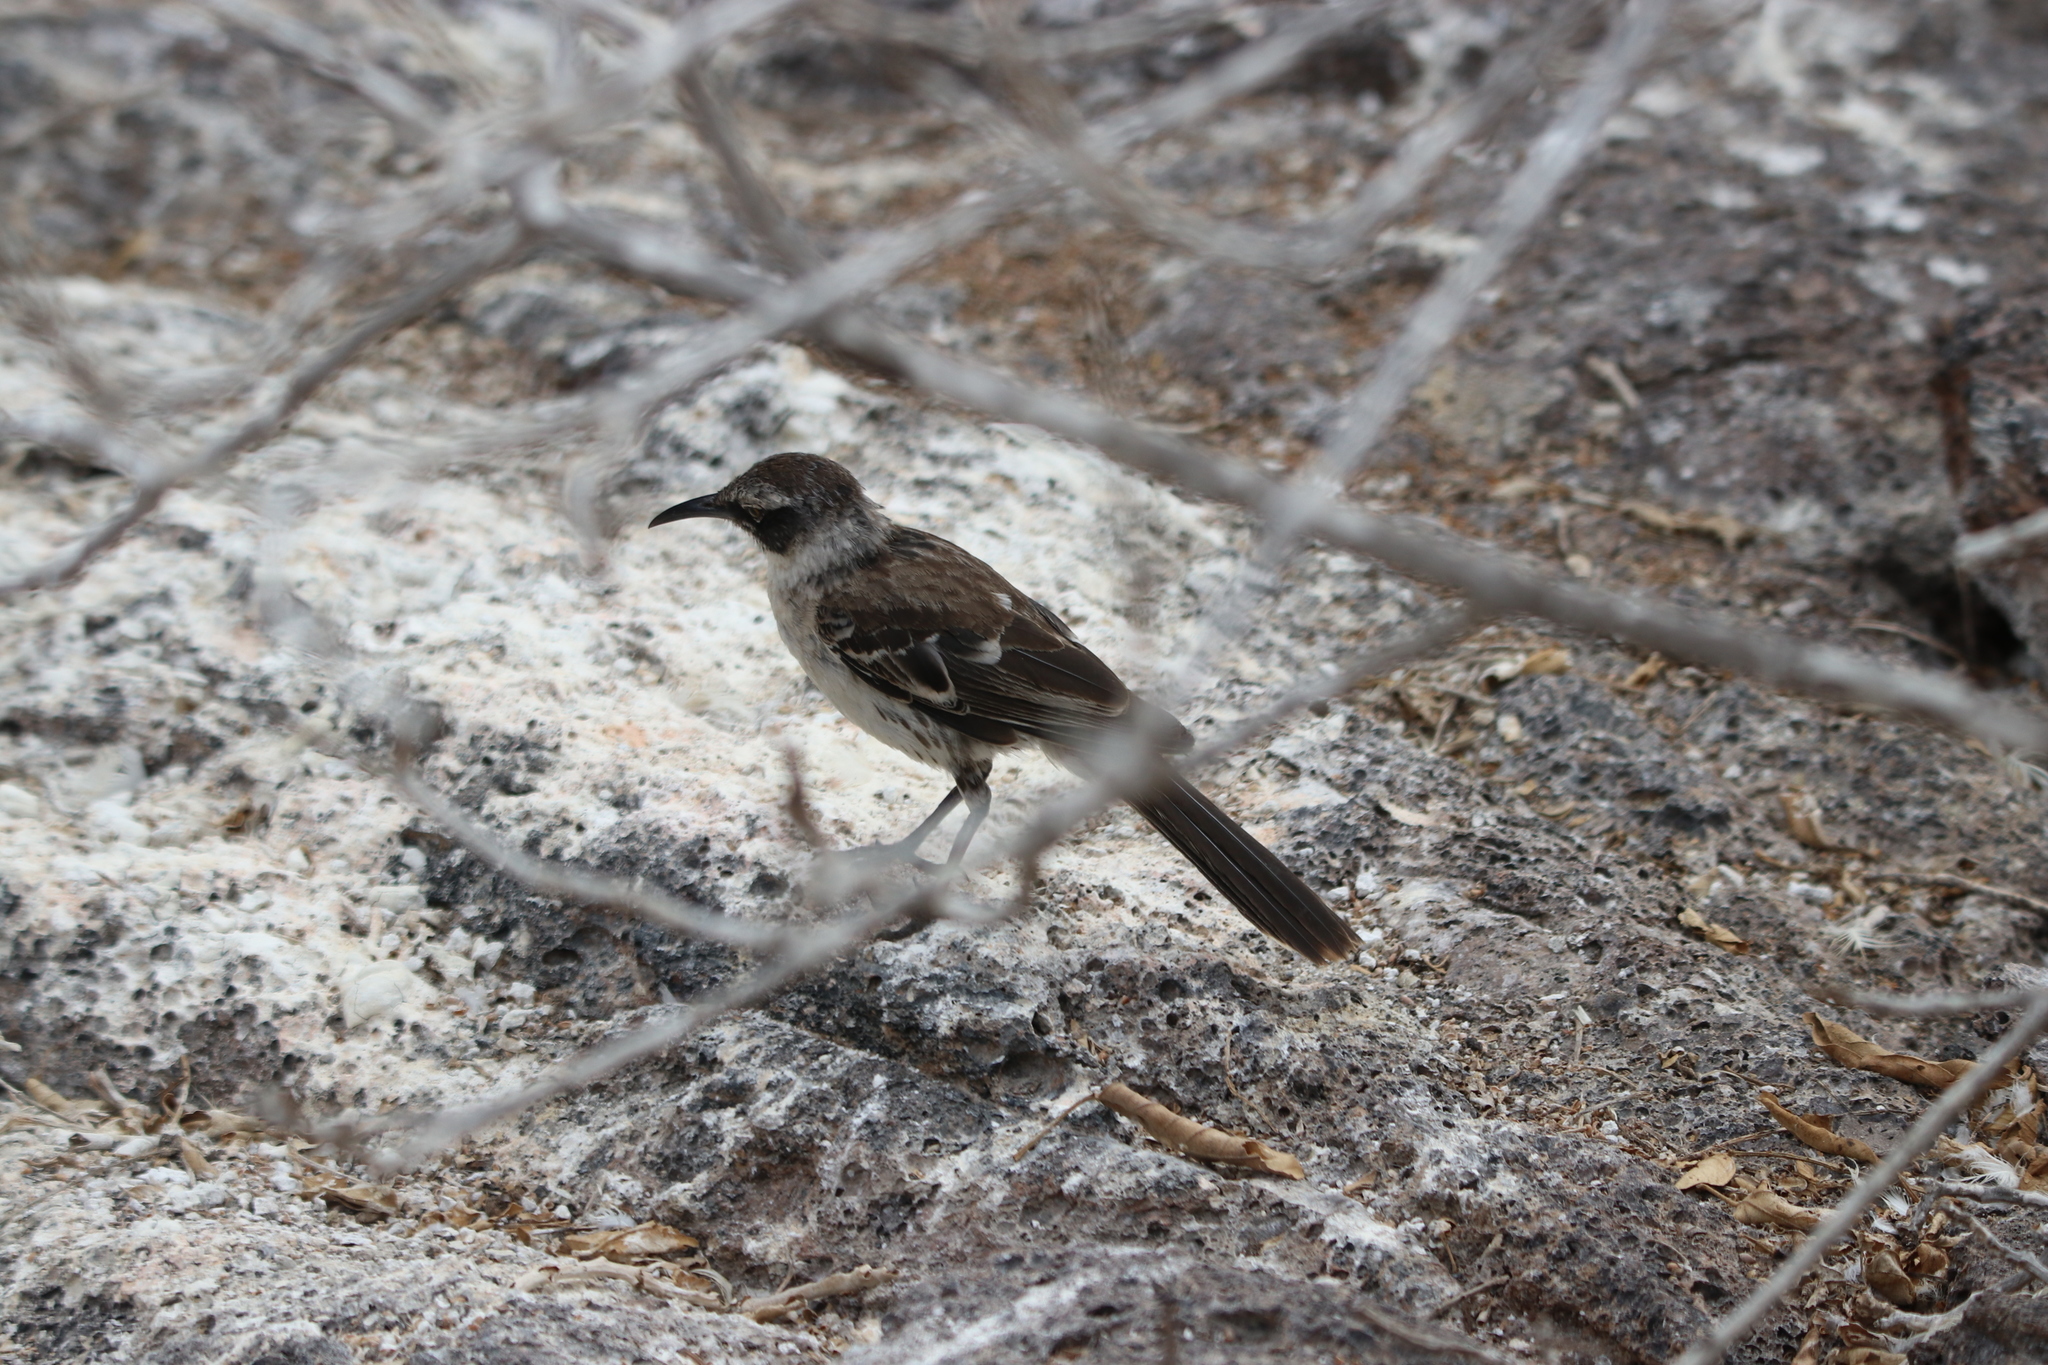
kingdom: Animalia
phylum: Chordata
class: Aves
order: Passeriformes
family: Mimidae
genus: Mimus
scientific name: Mimus parvulus
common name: Galapagos mockingbird
